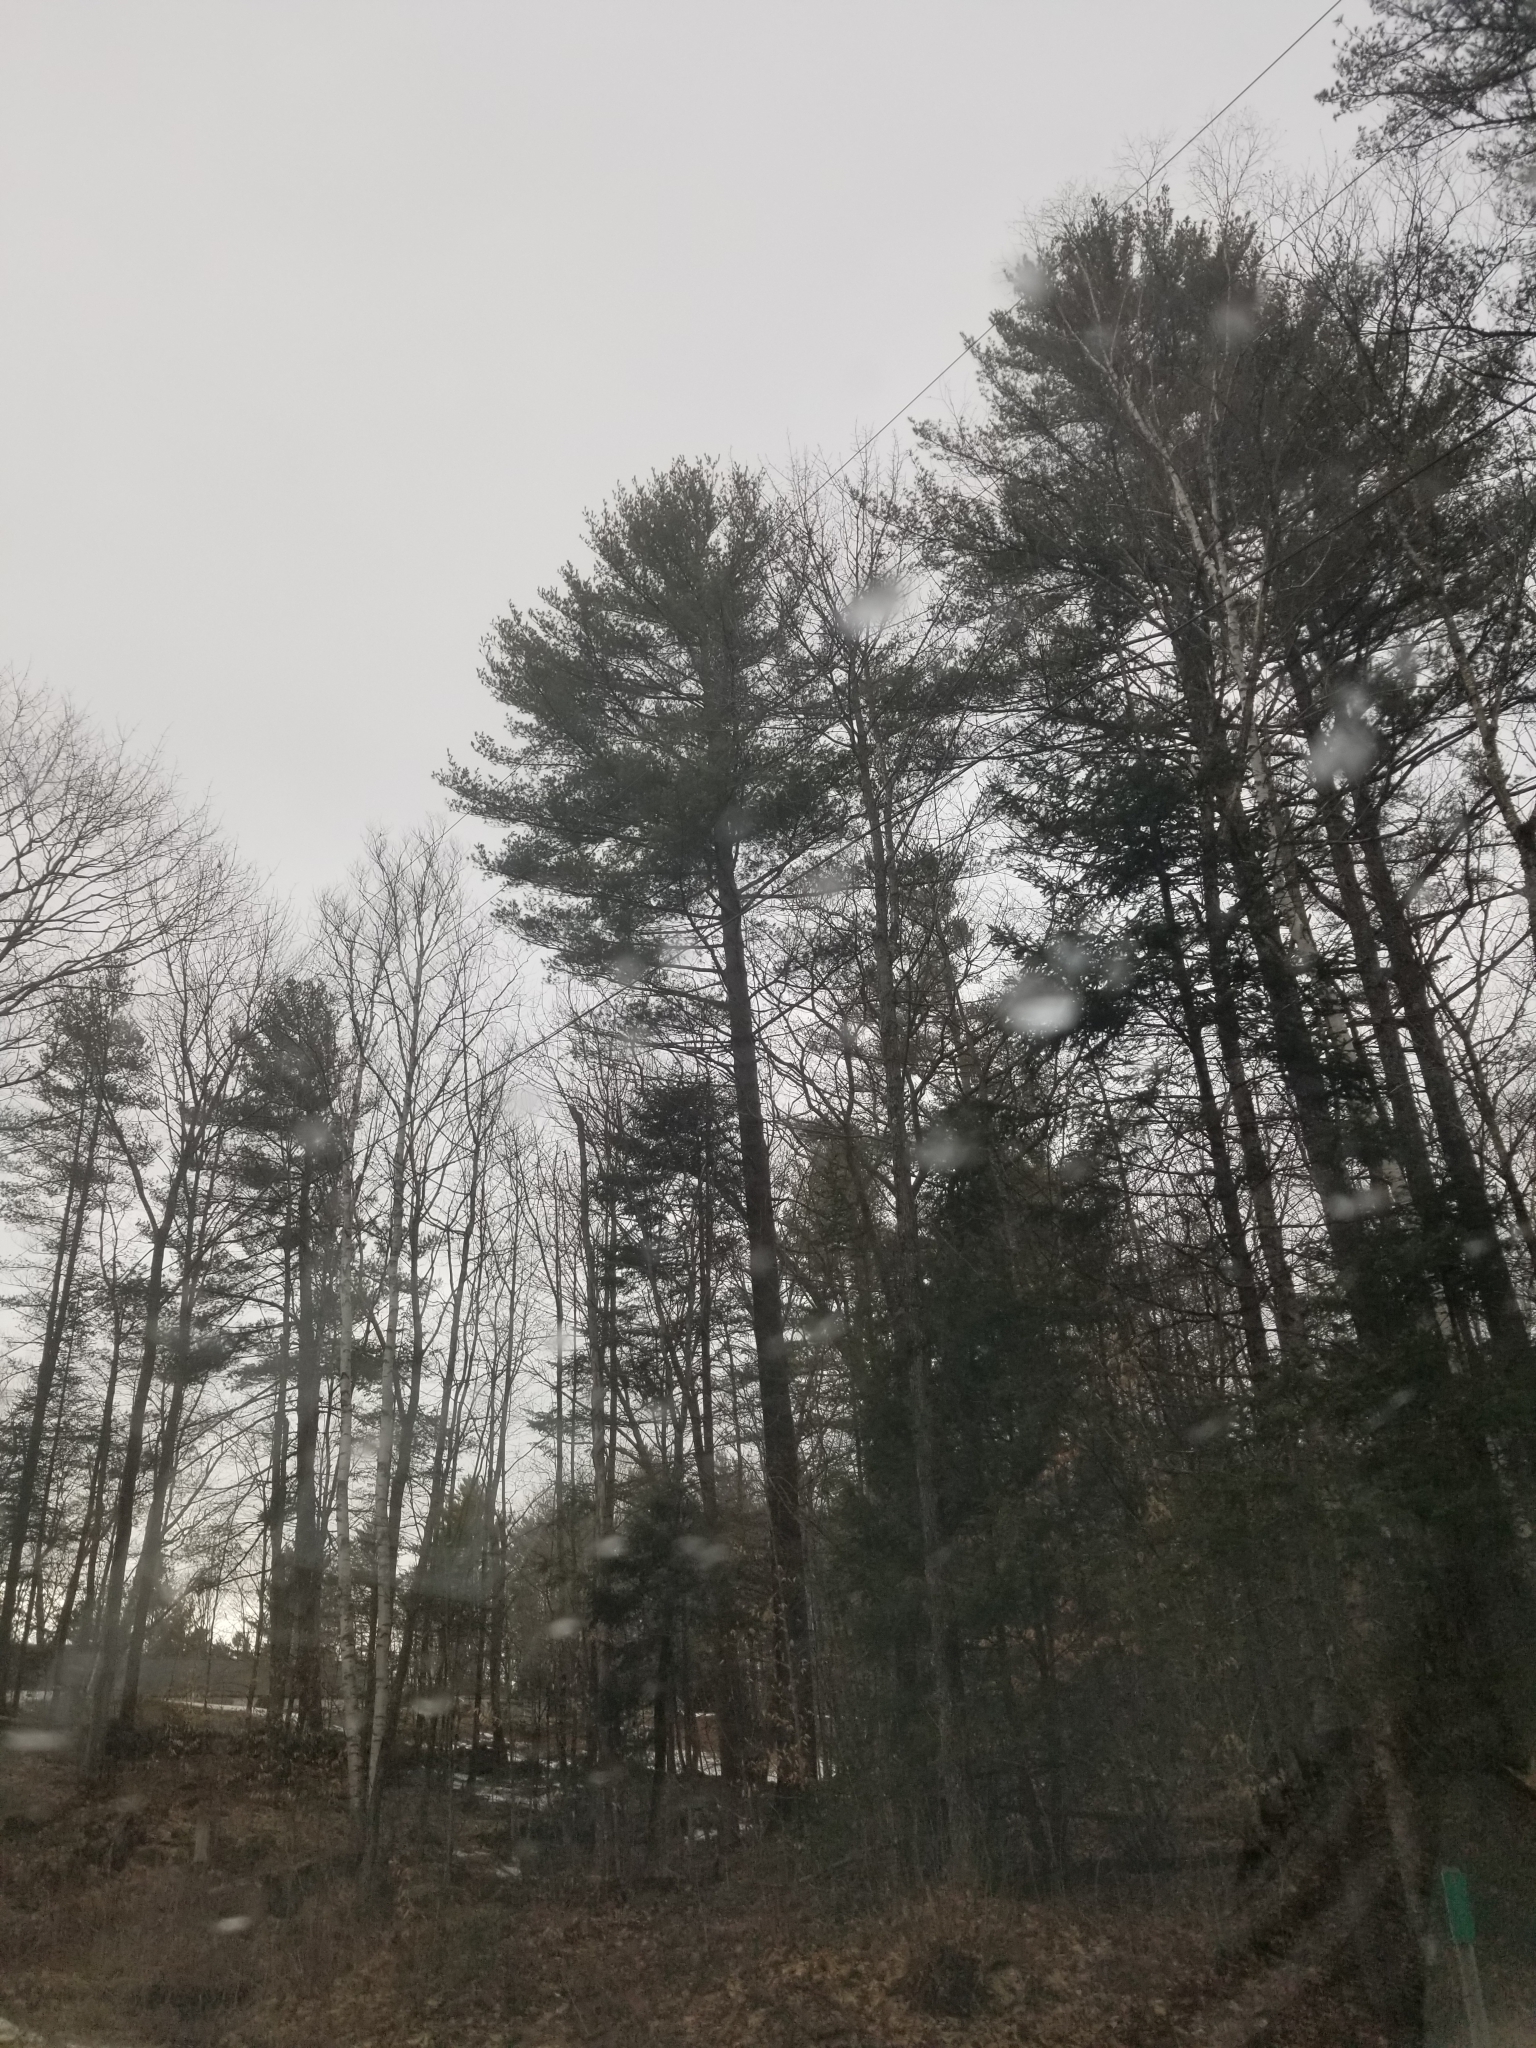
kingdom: Plantae
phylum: Tracheophyta
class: Pinopsida
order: Pinales
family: Pinaceae
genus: Pinus
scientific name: Pinus strobus
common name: Weymouth pine
